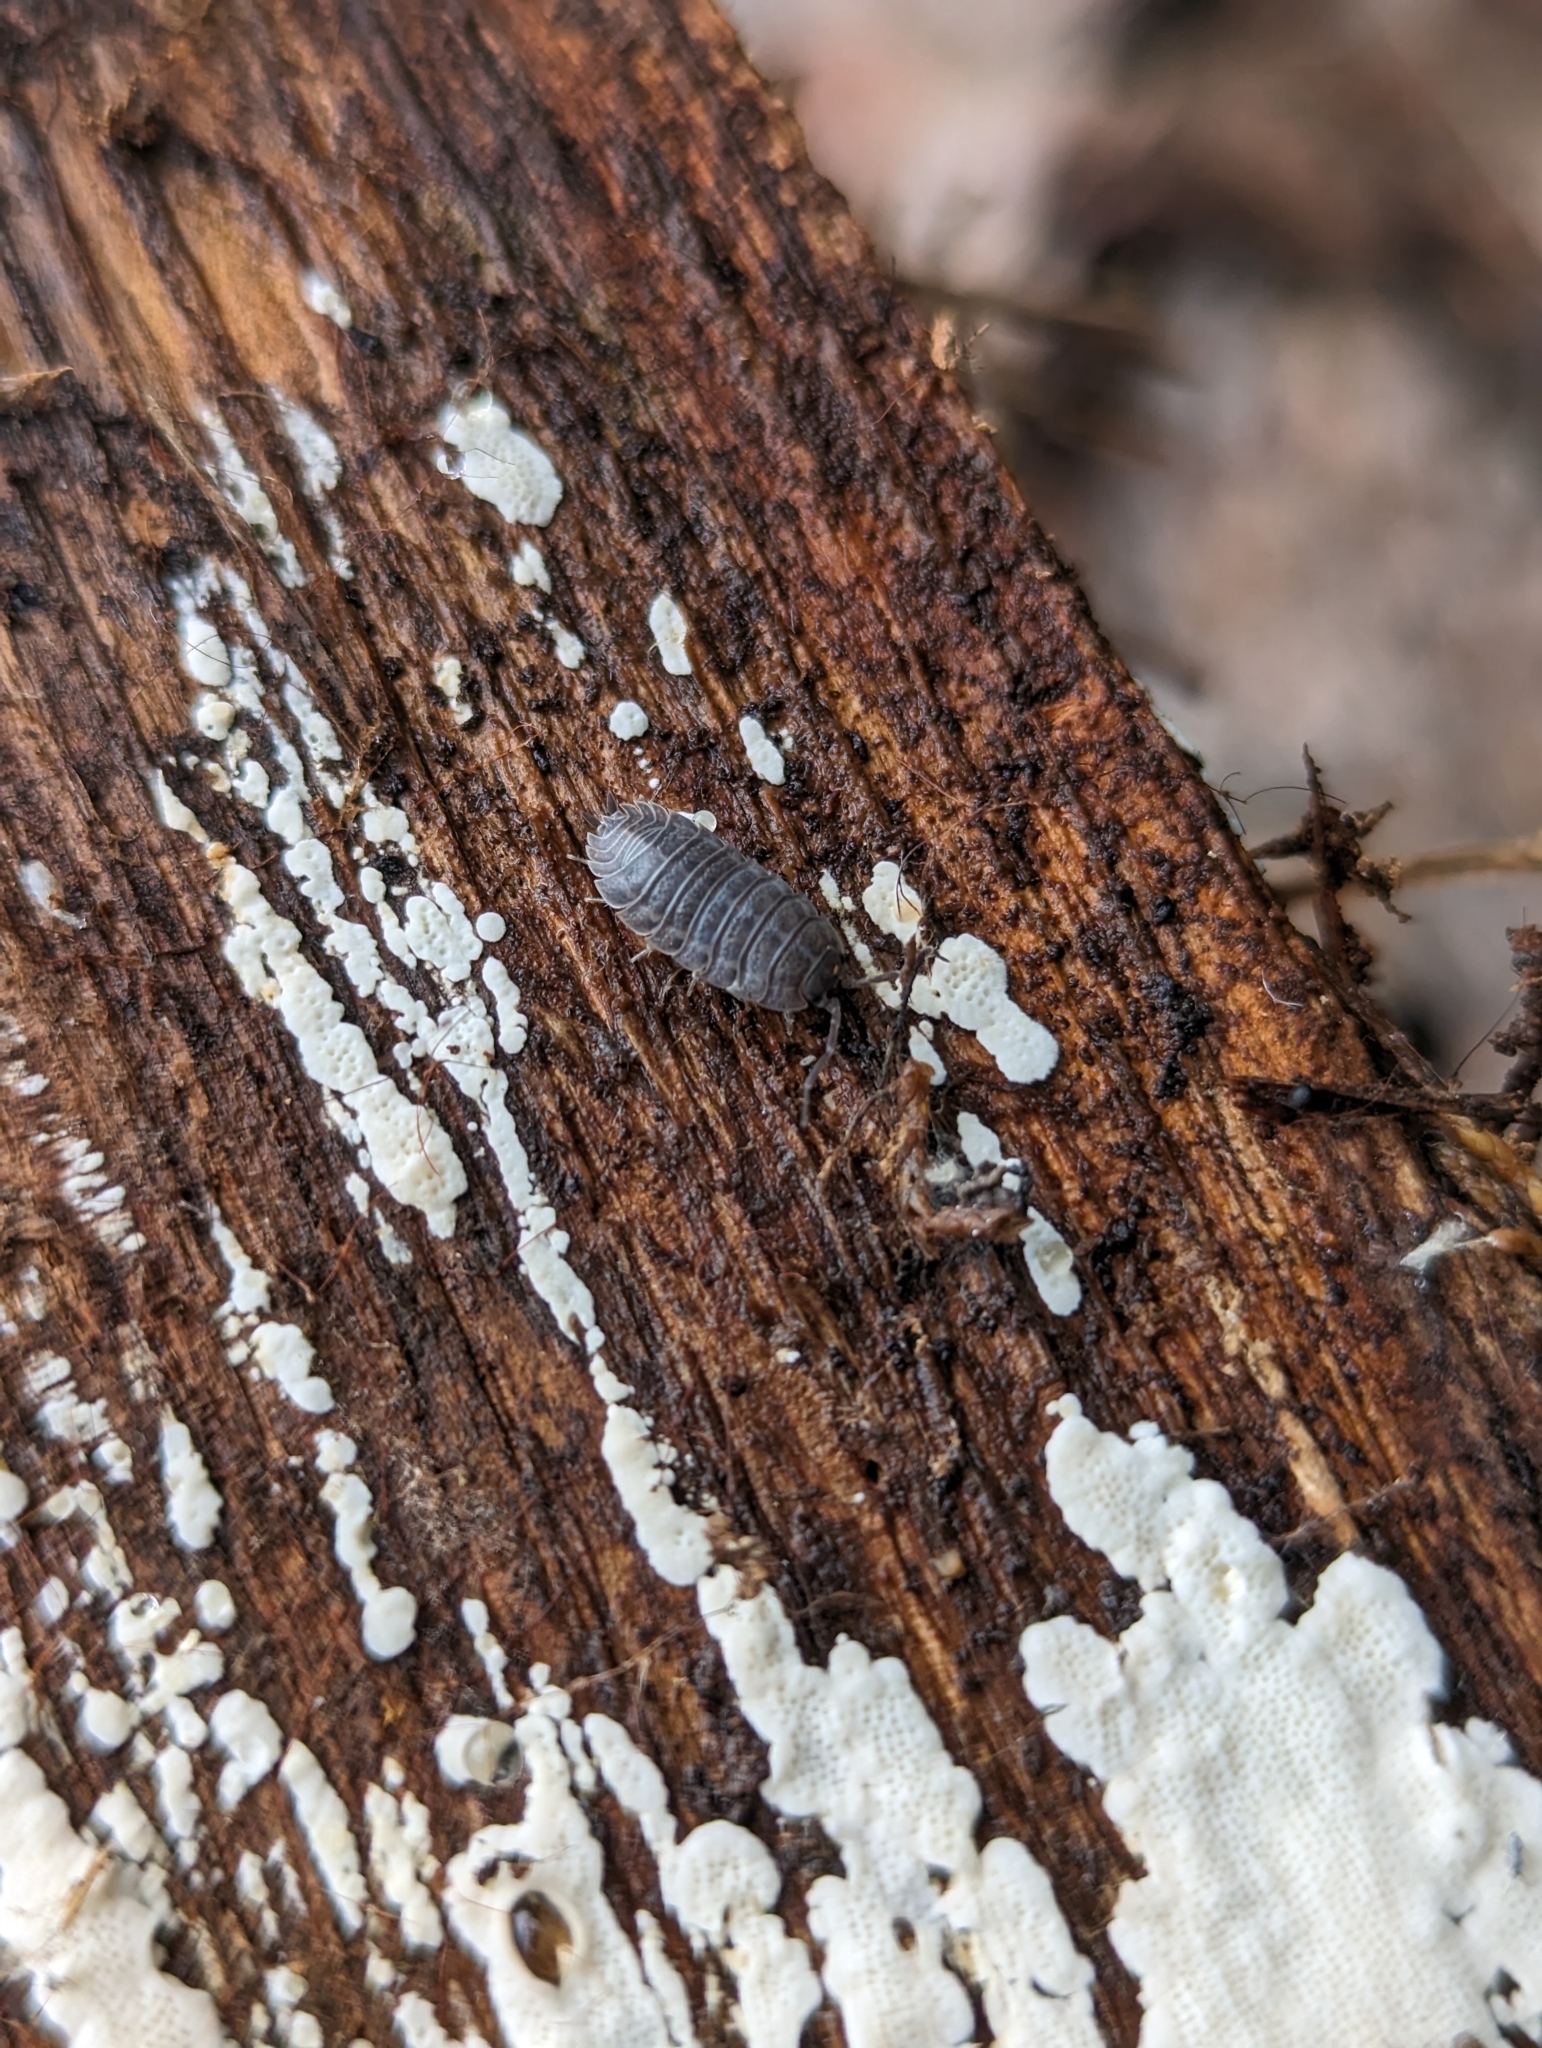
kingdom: Animalia
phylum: Arthropoda
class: Malacostraca
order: Isopoda
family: Trachelipodidae
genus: Trachelipus
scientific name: Trachelipus rathkii
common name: Isopod
